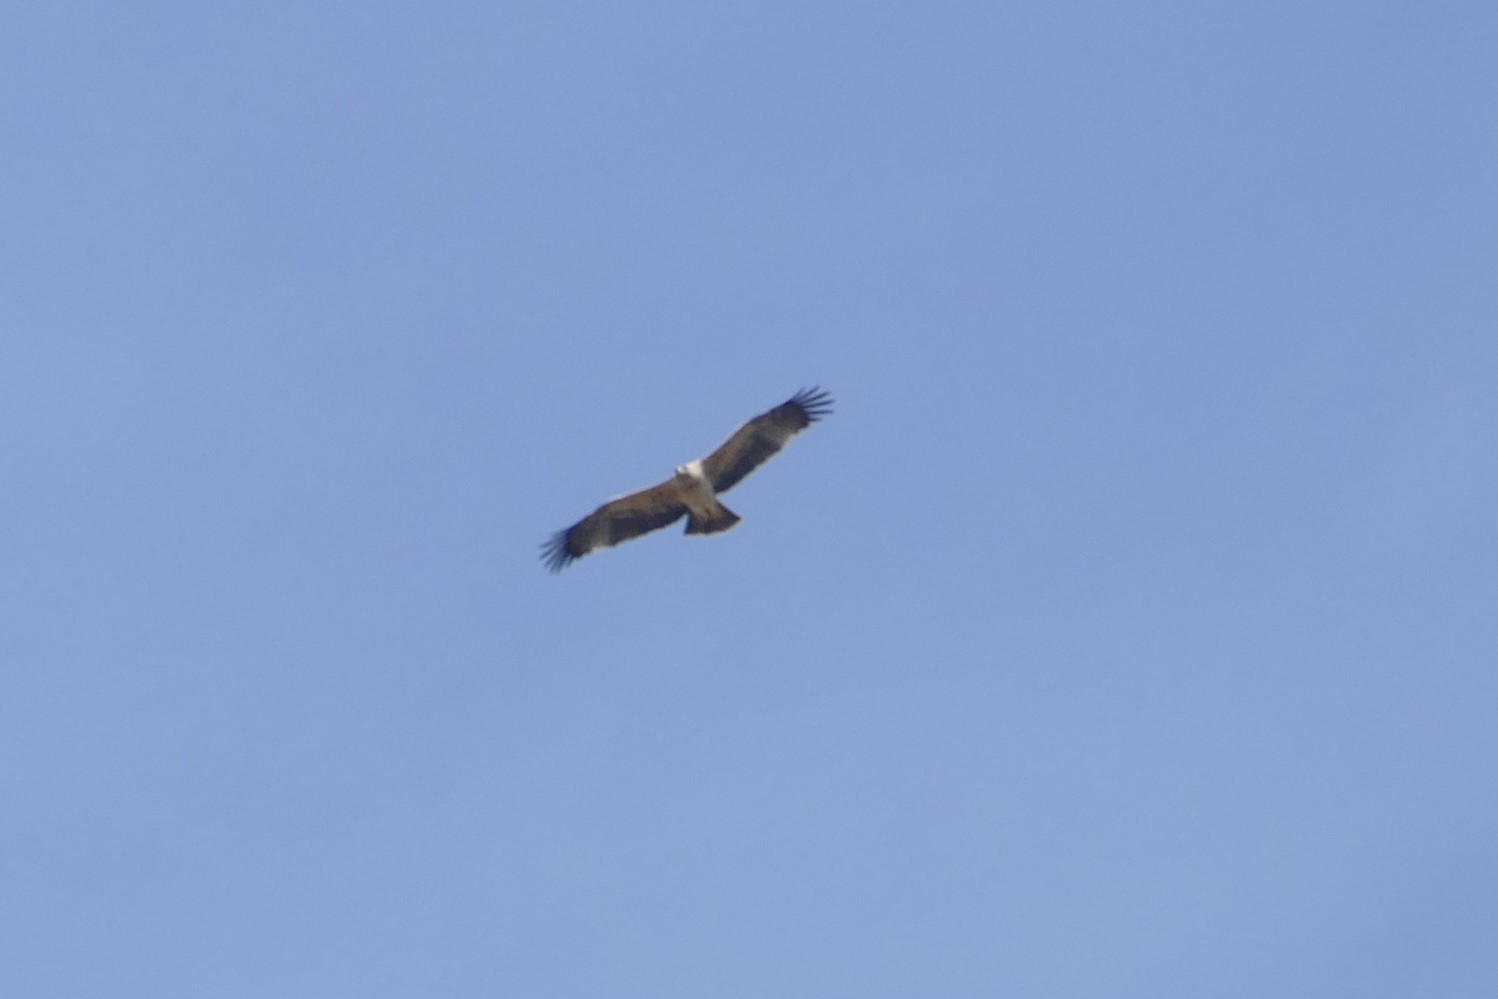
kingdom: Animalia
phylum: Chordata
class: Aves
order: Accipitriformes
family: Accipitridae
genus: Aquila
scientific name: Aquila adalberti
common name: Spanish imperial eagle
